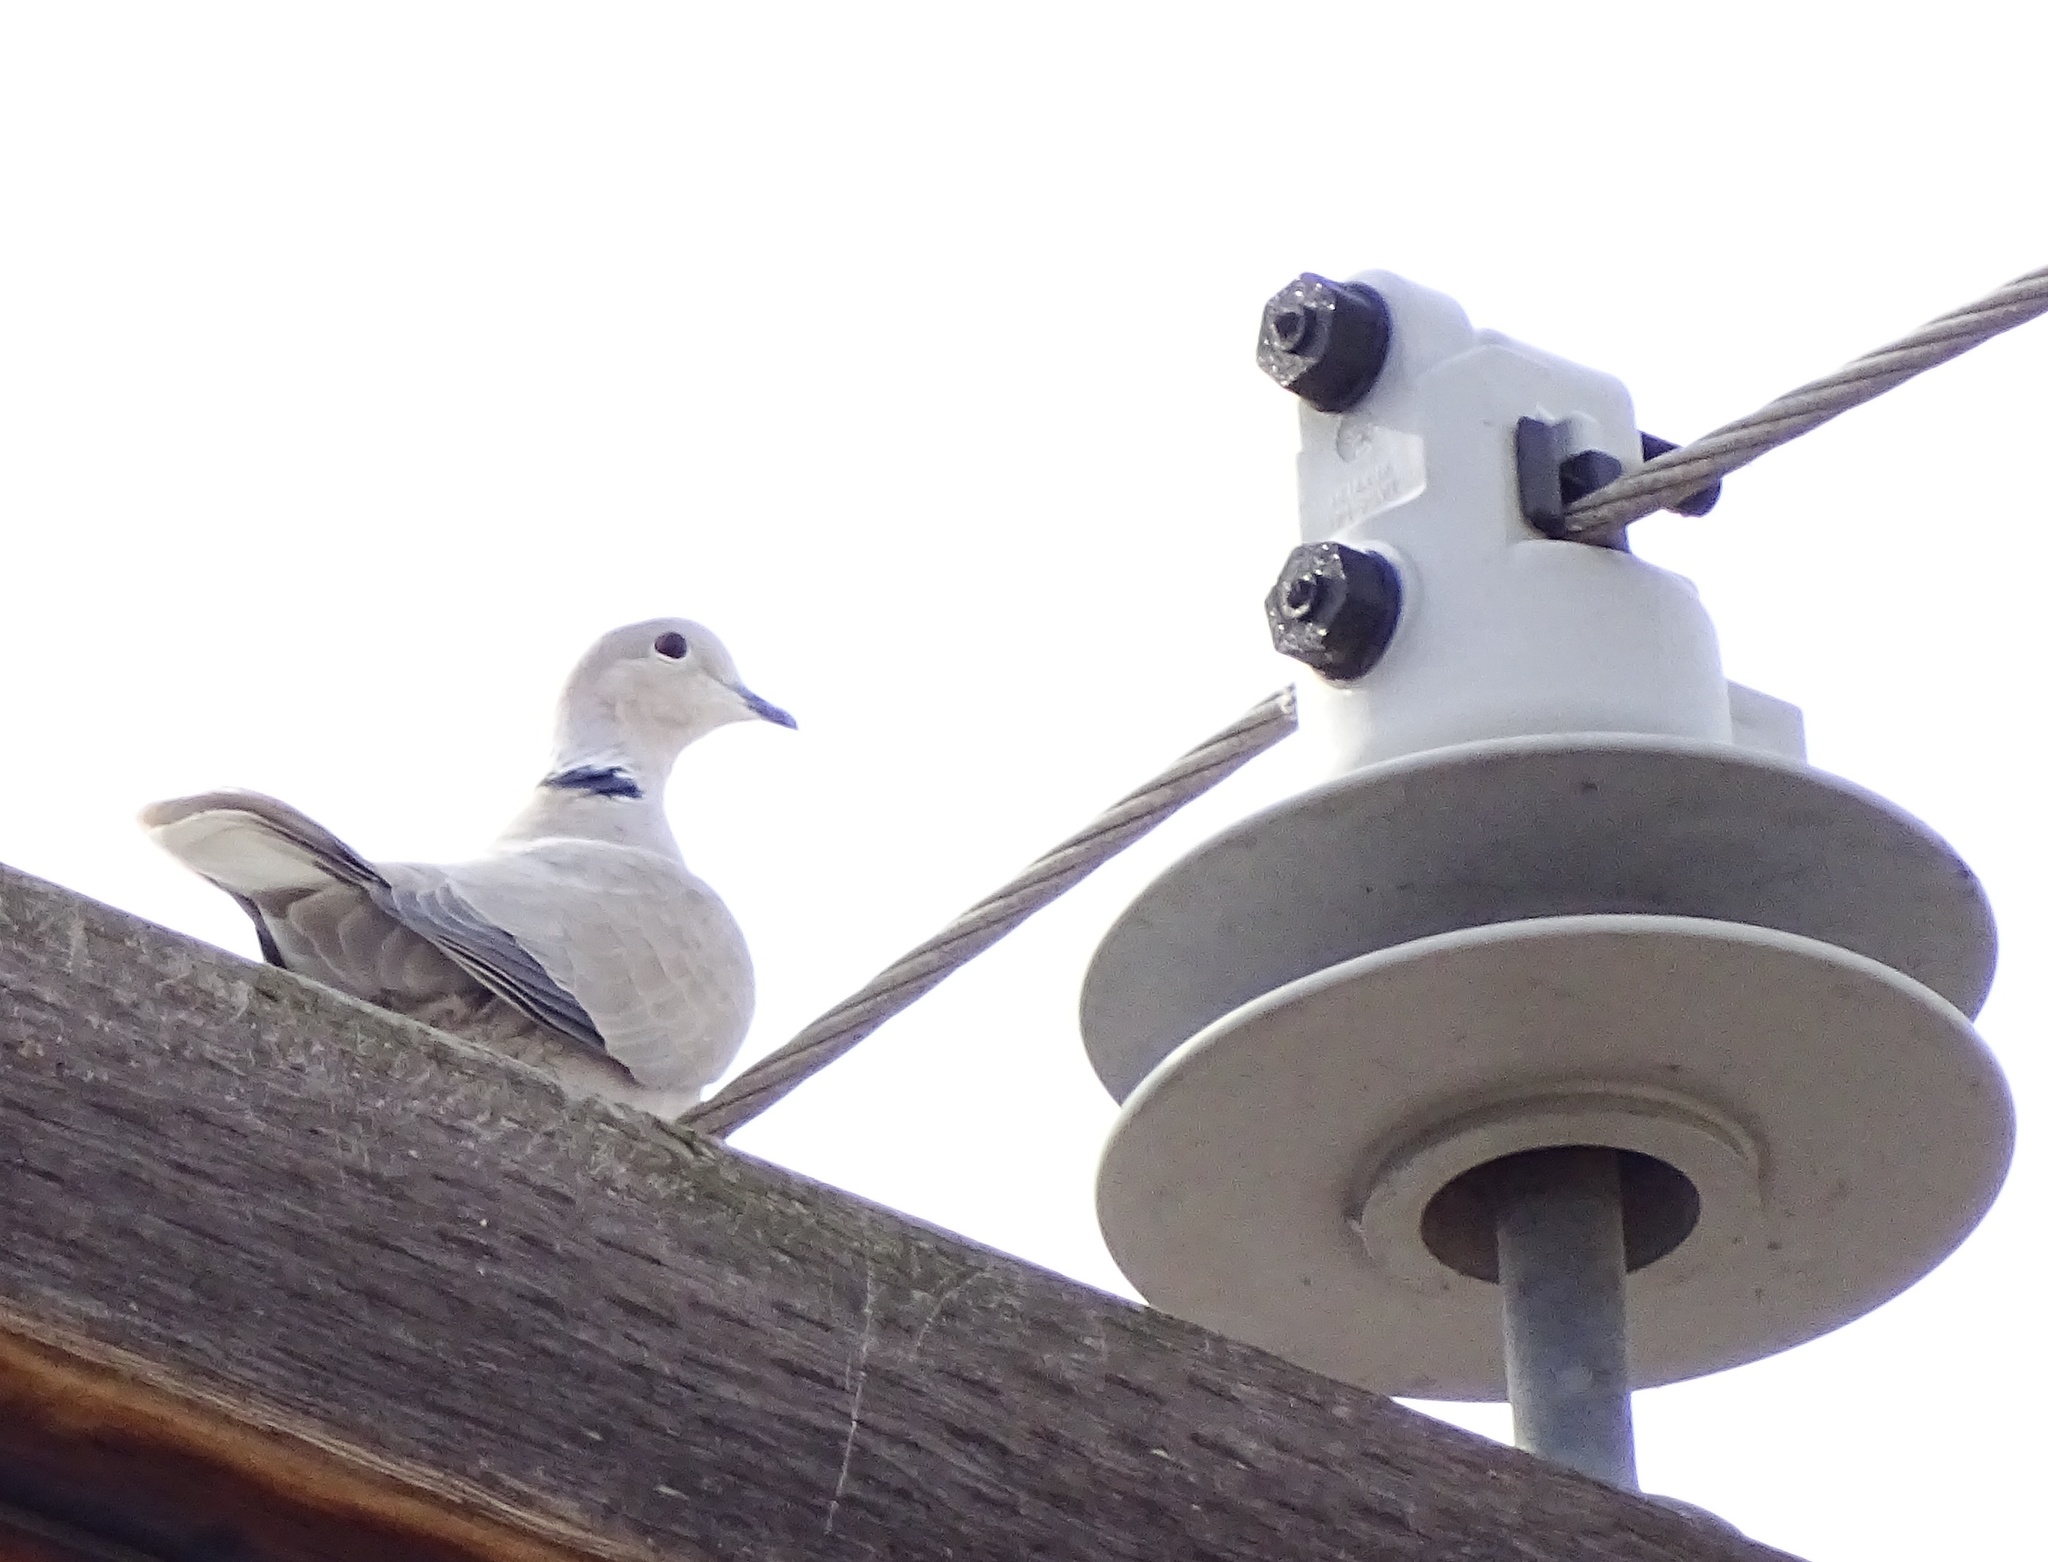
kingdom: Animalia
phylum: Chordata
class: Aves
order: Columbiformes
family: Columbidae
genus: Streptopelia
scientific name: Streptopelia decaocto
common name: Eurasian collared dove
